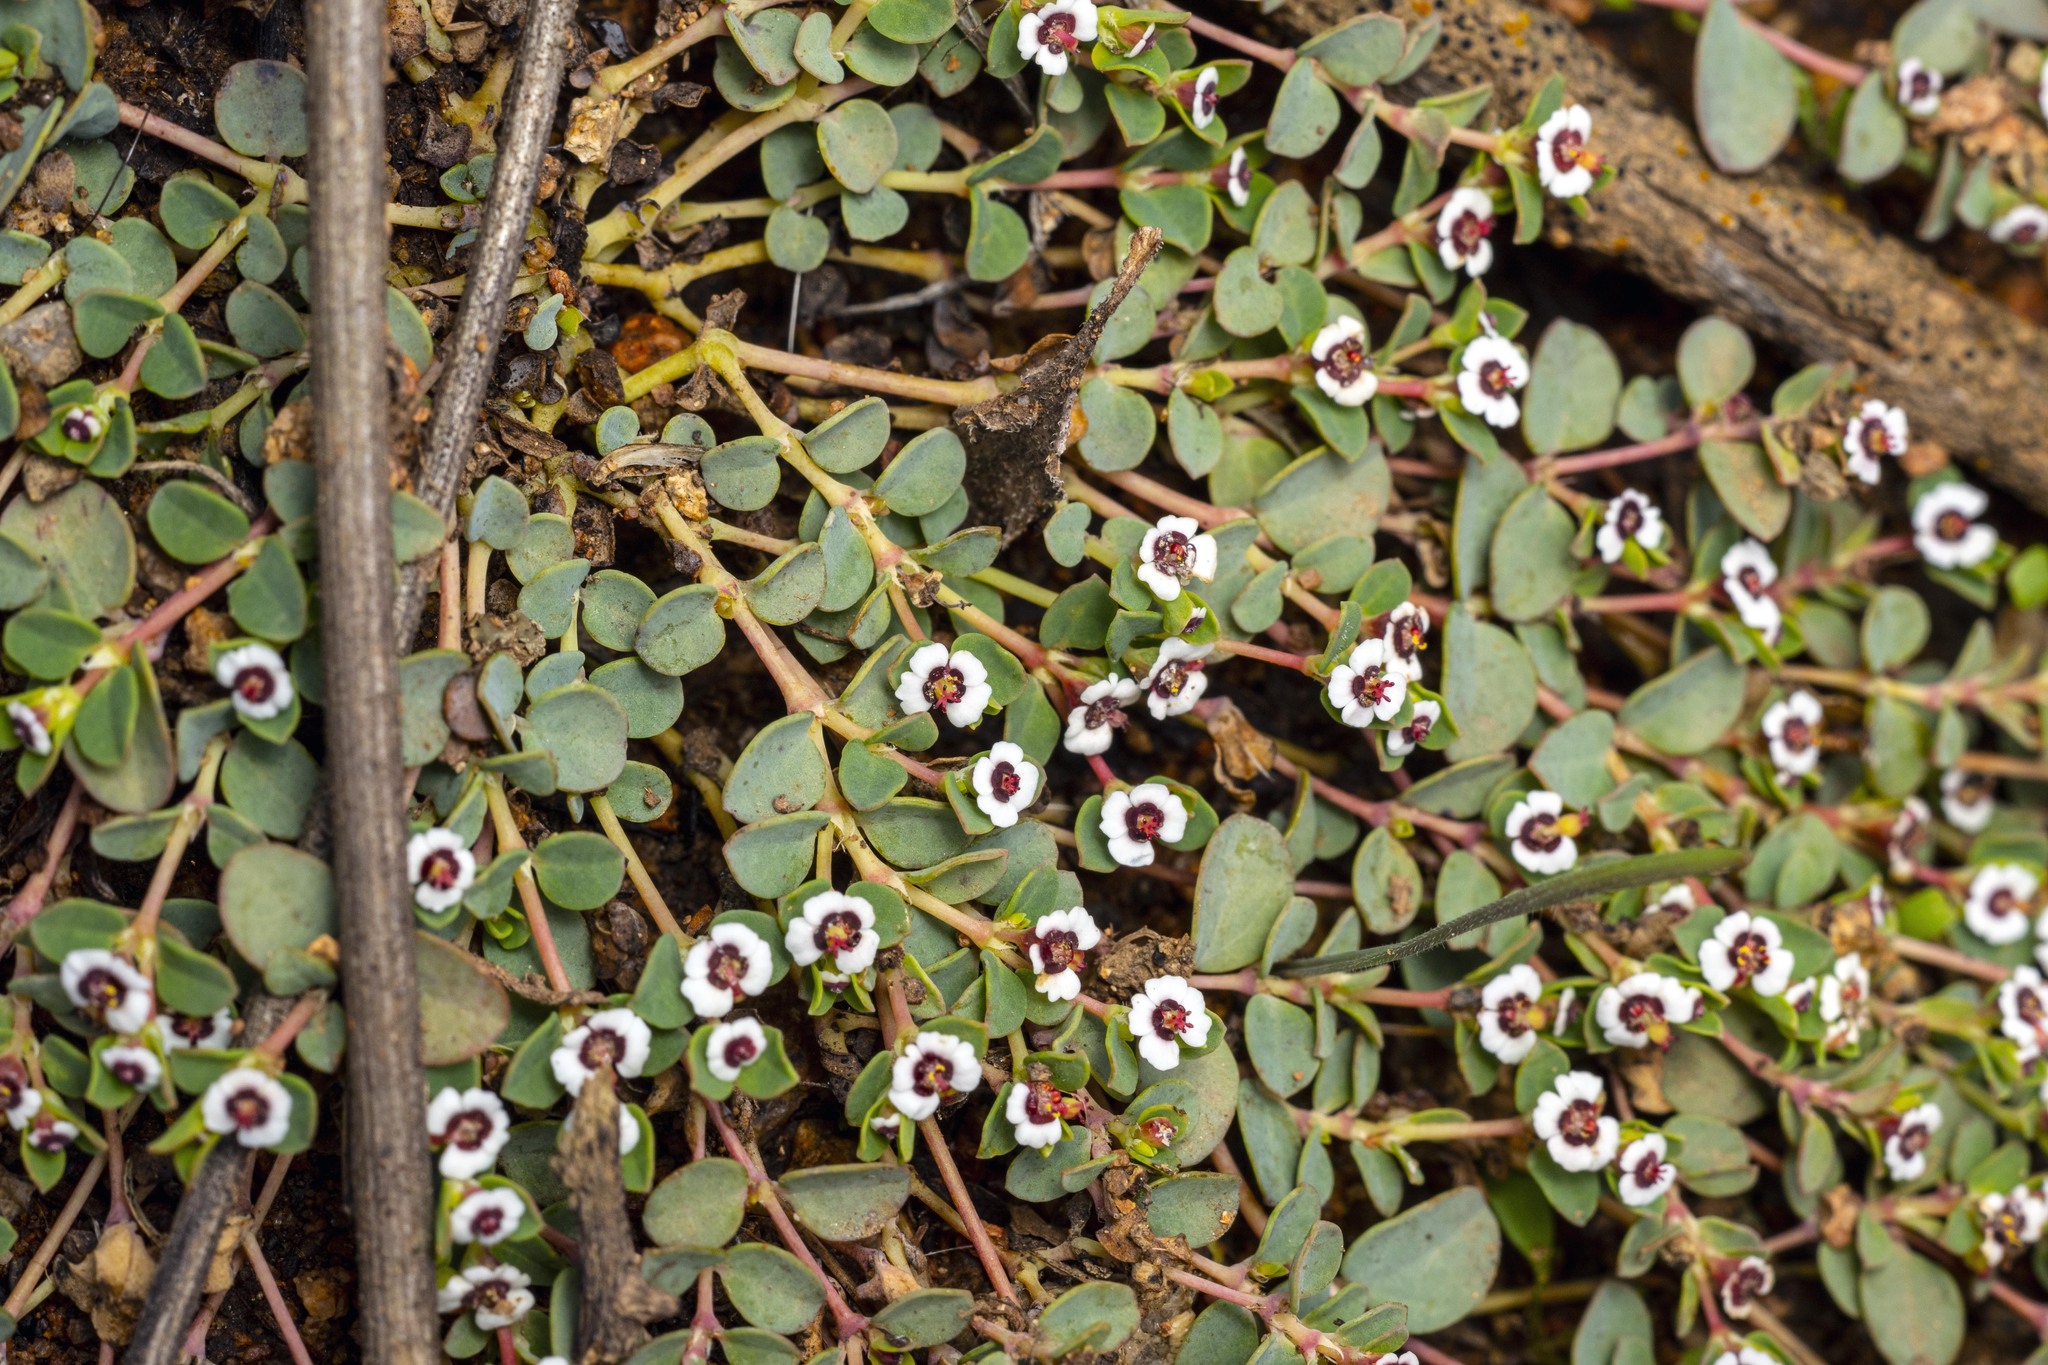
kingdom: Plantae
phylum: Tracheophyta
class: Magnoliopsida
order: Malpighiales
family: Euphorbiaceae
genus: Euphorbia
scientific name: Euphorbia polycarpa
